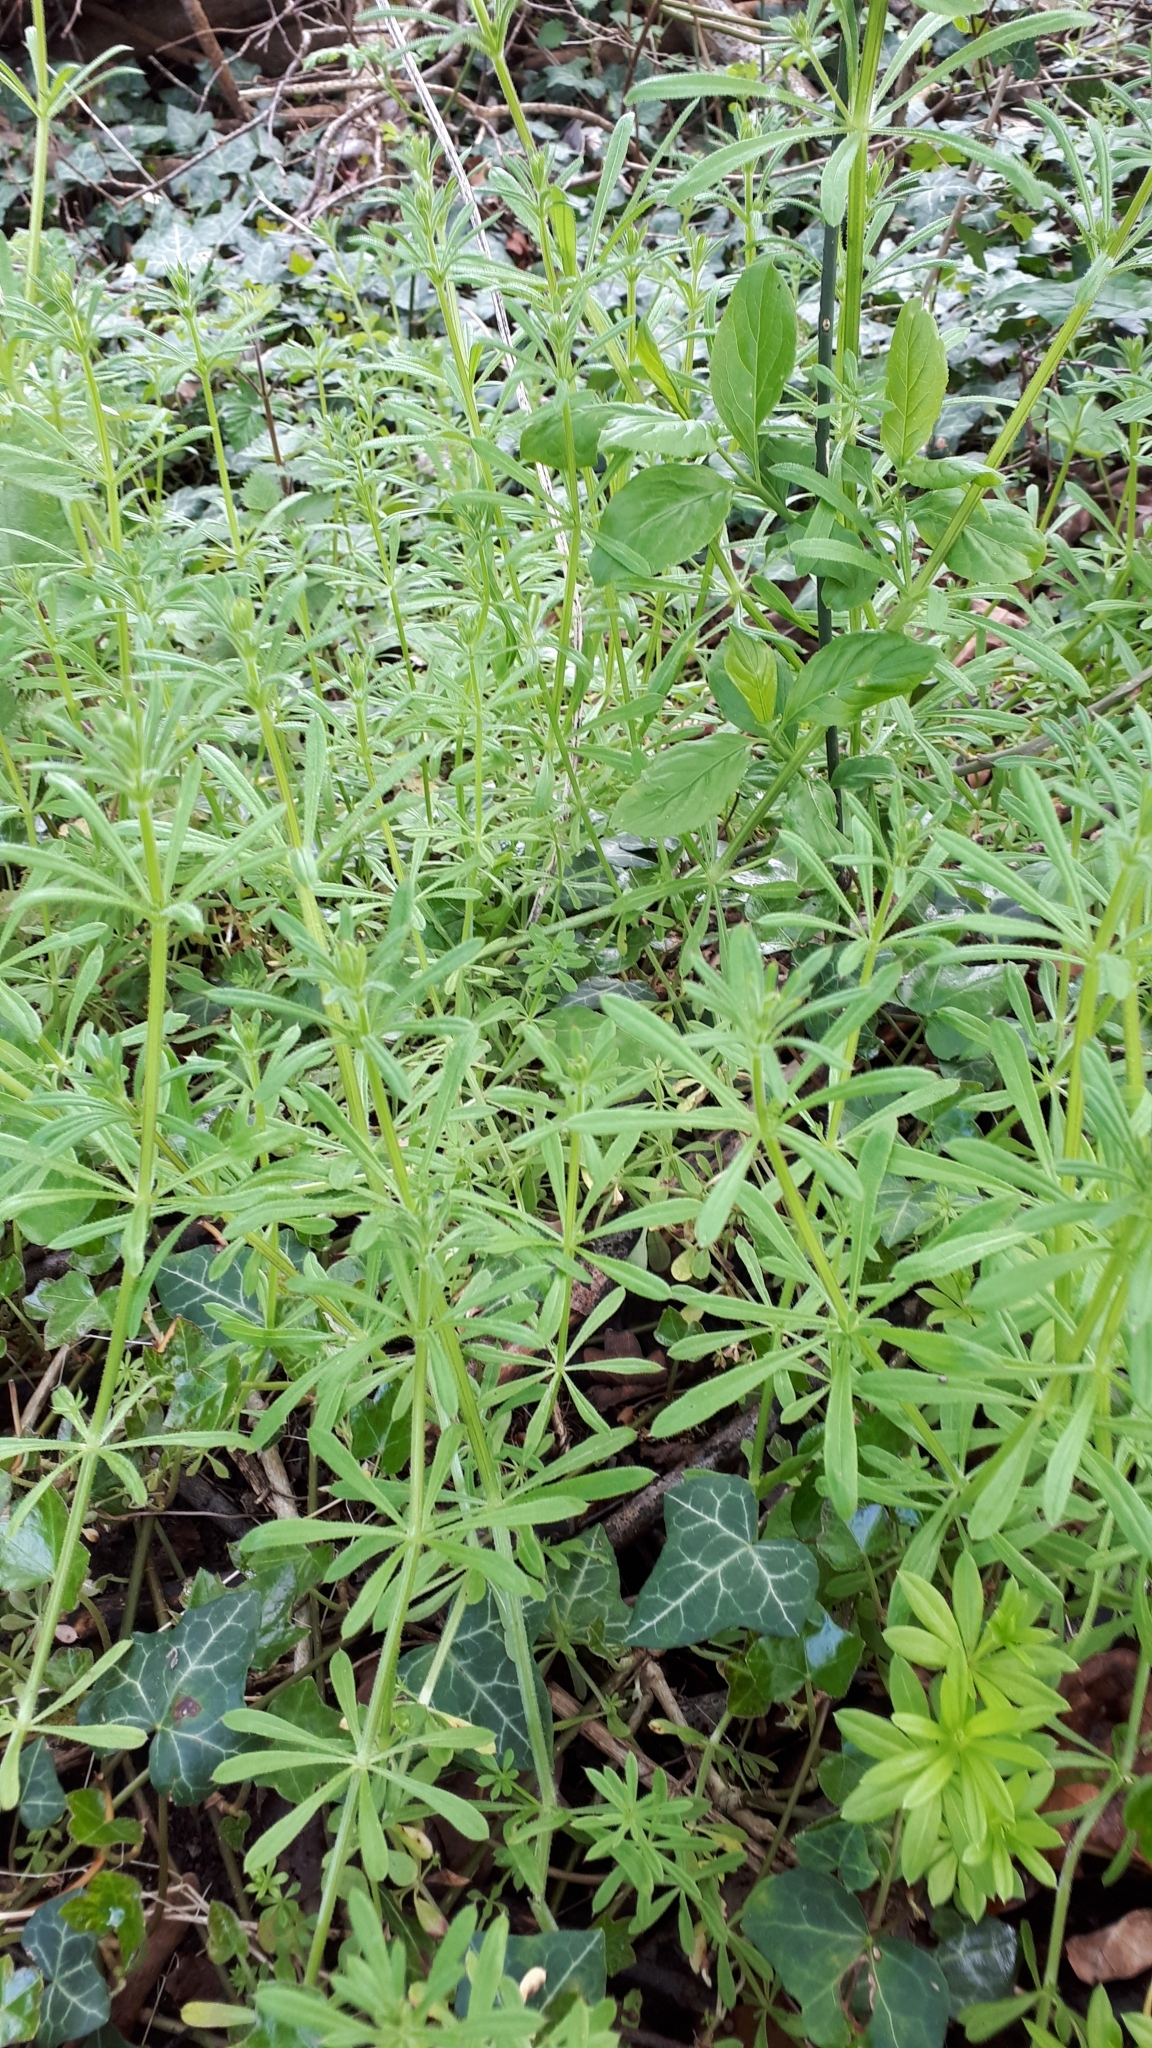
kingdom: Plantae
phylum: Tracheophyta
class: Magnoliopsida
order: Gentianales
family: Rubiaceae
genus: Galium
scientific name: Galium aparine
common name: Cleavers
